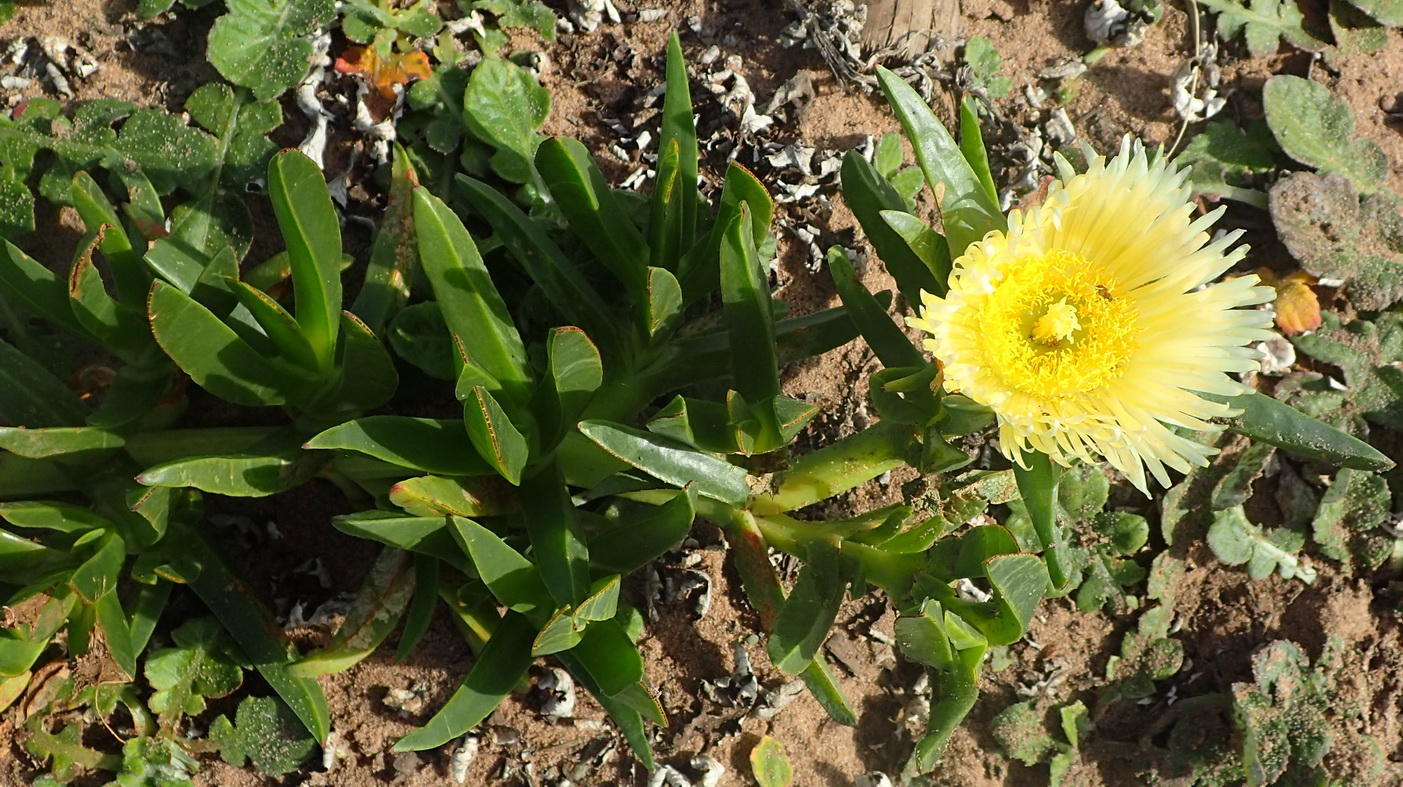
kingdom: Plantae
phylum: Tracheophyta
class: Magnoliopsida
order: Caryophyllales
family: Aizoaceae
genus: Carpobrotus
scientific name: Carpobrotus edulis
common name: Hottentot-fig
